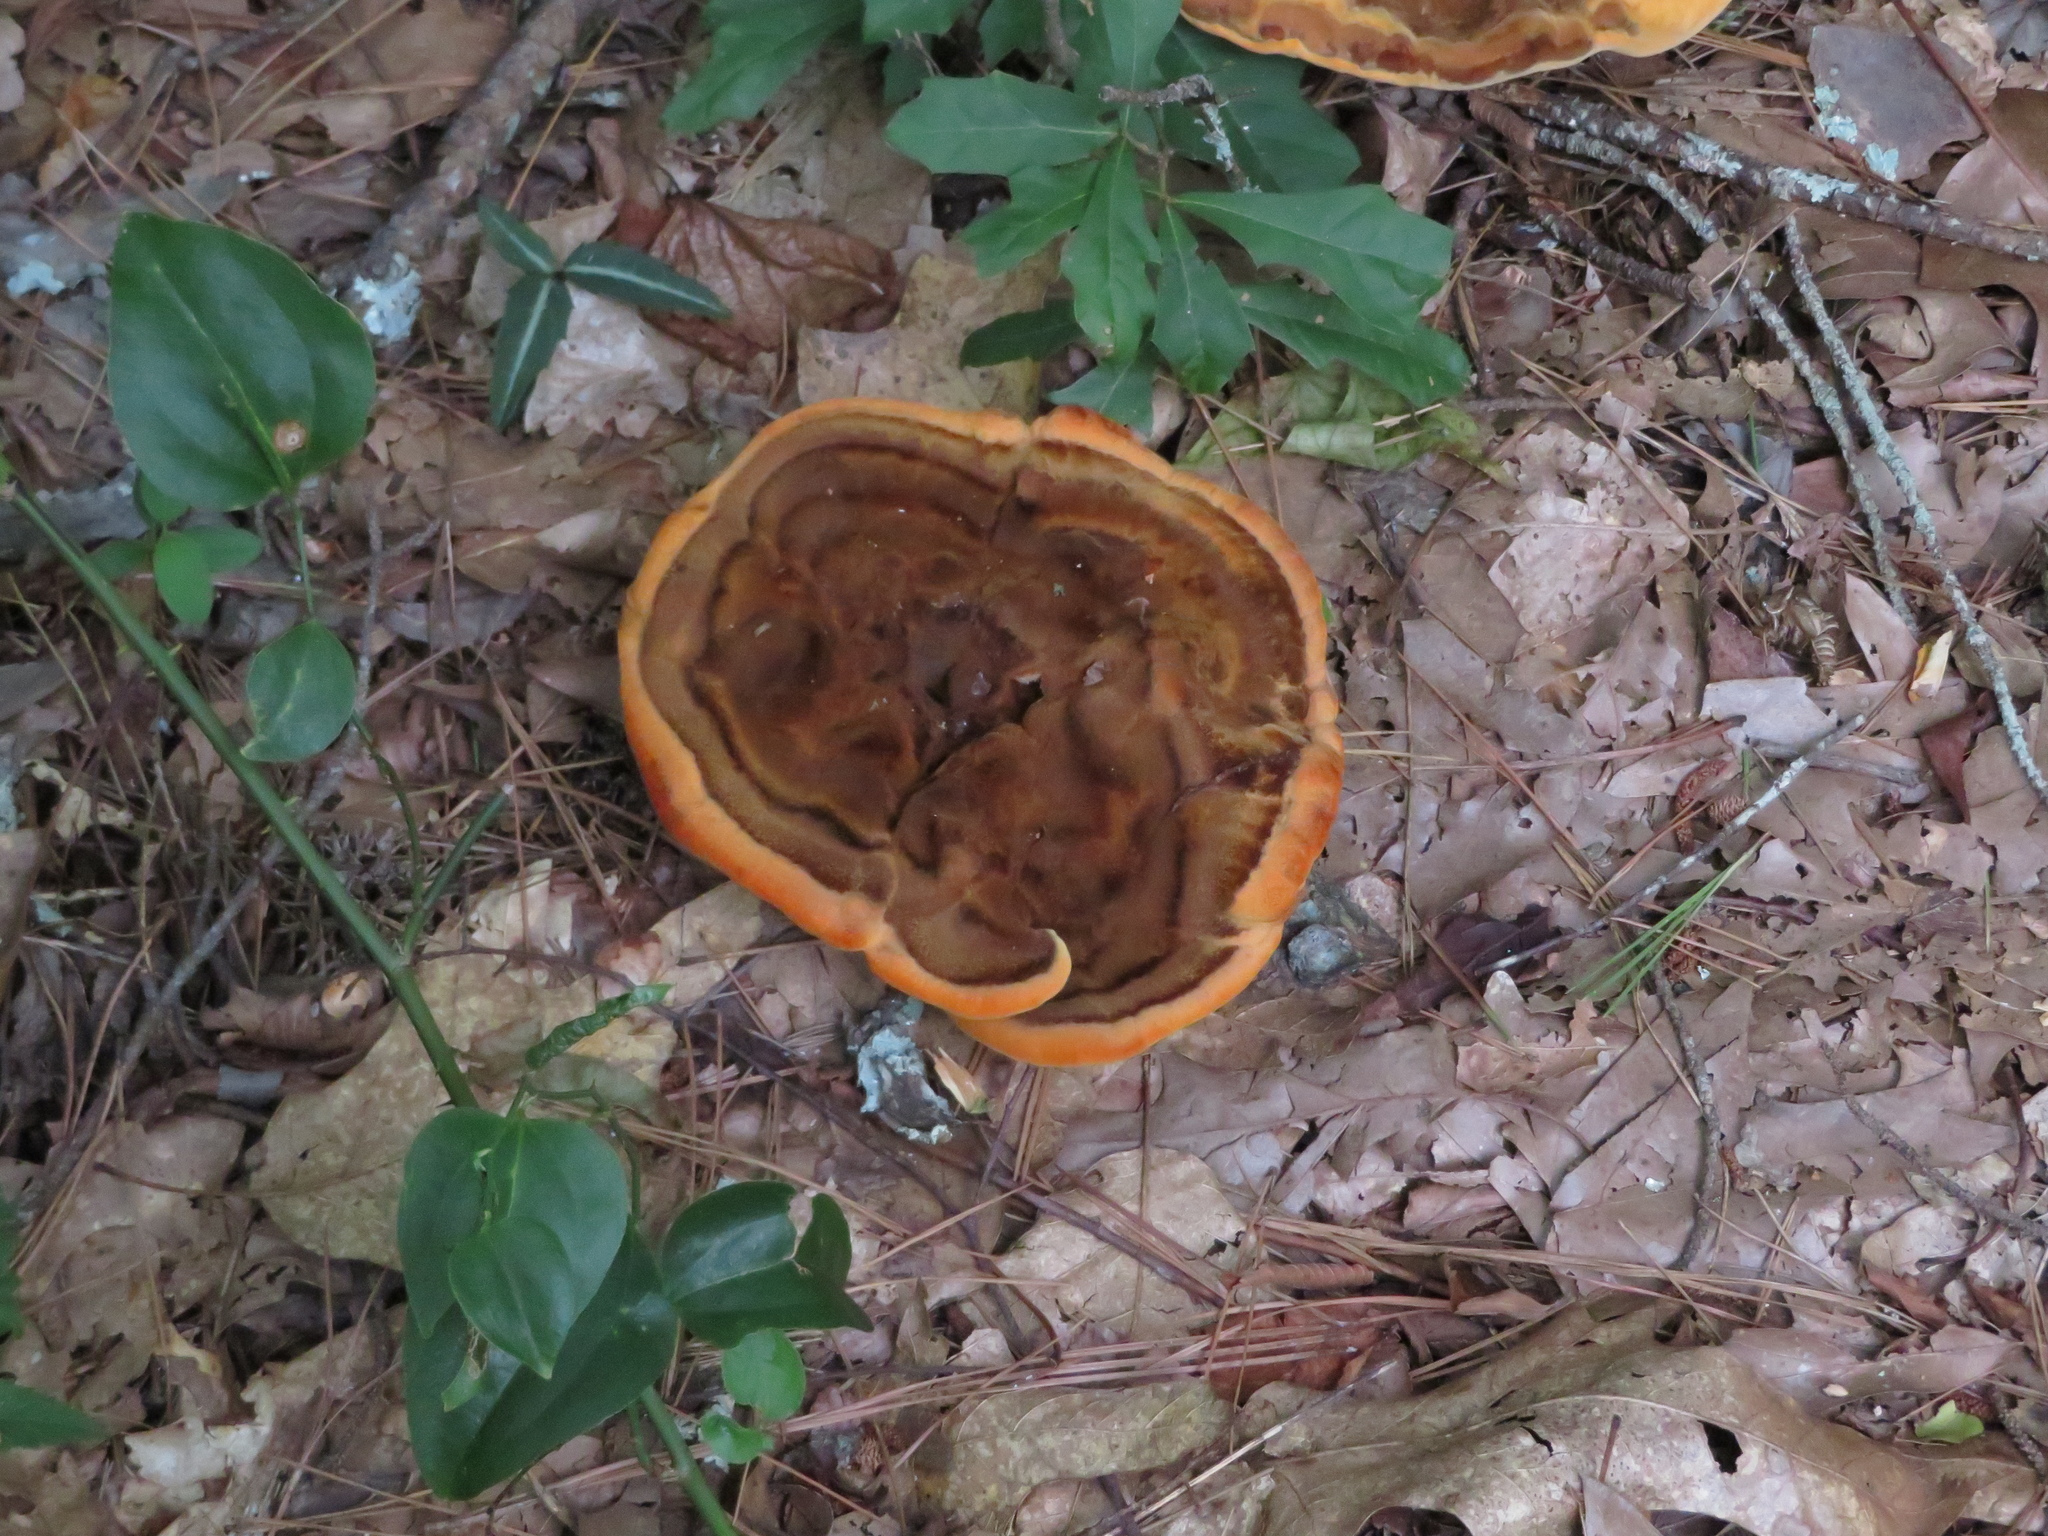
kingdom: Fungi
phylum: Basidiomycota
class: Agaricomycetes
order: Polyporales
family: Laetiporaceae
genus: Phaeolus
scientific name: Phaeolus schweinitzii
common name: Dyer's mazegill
